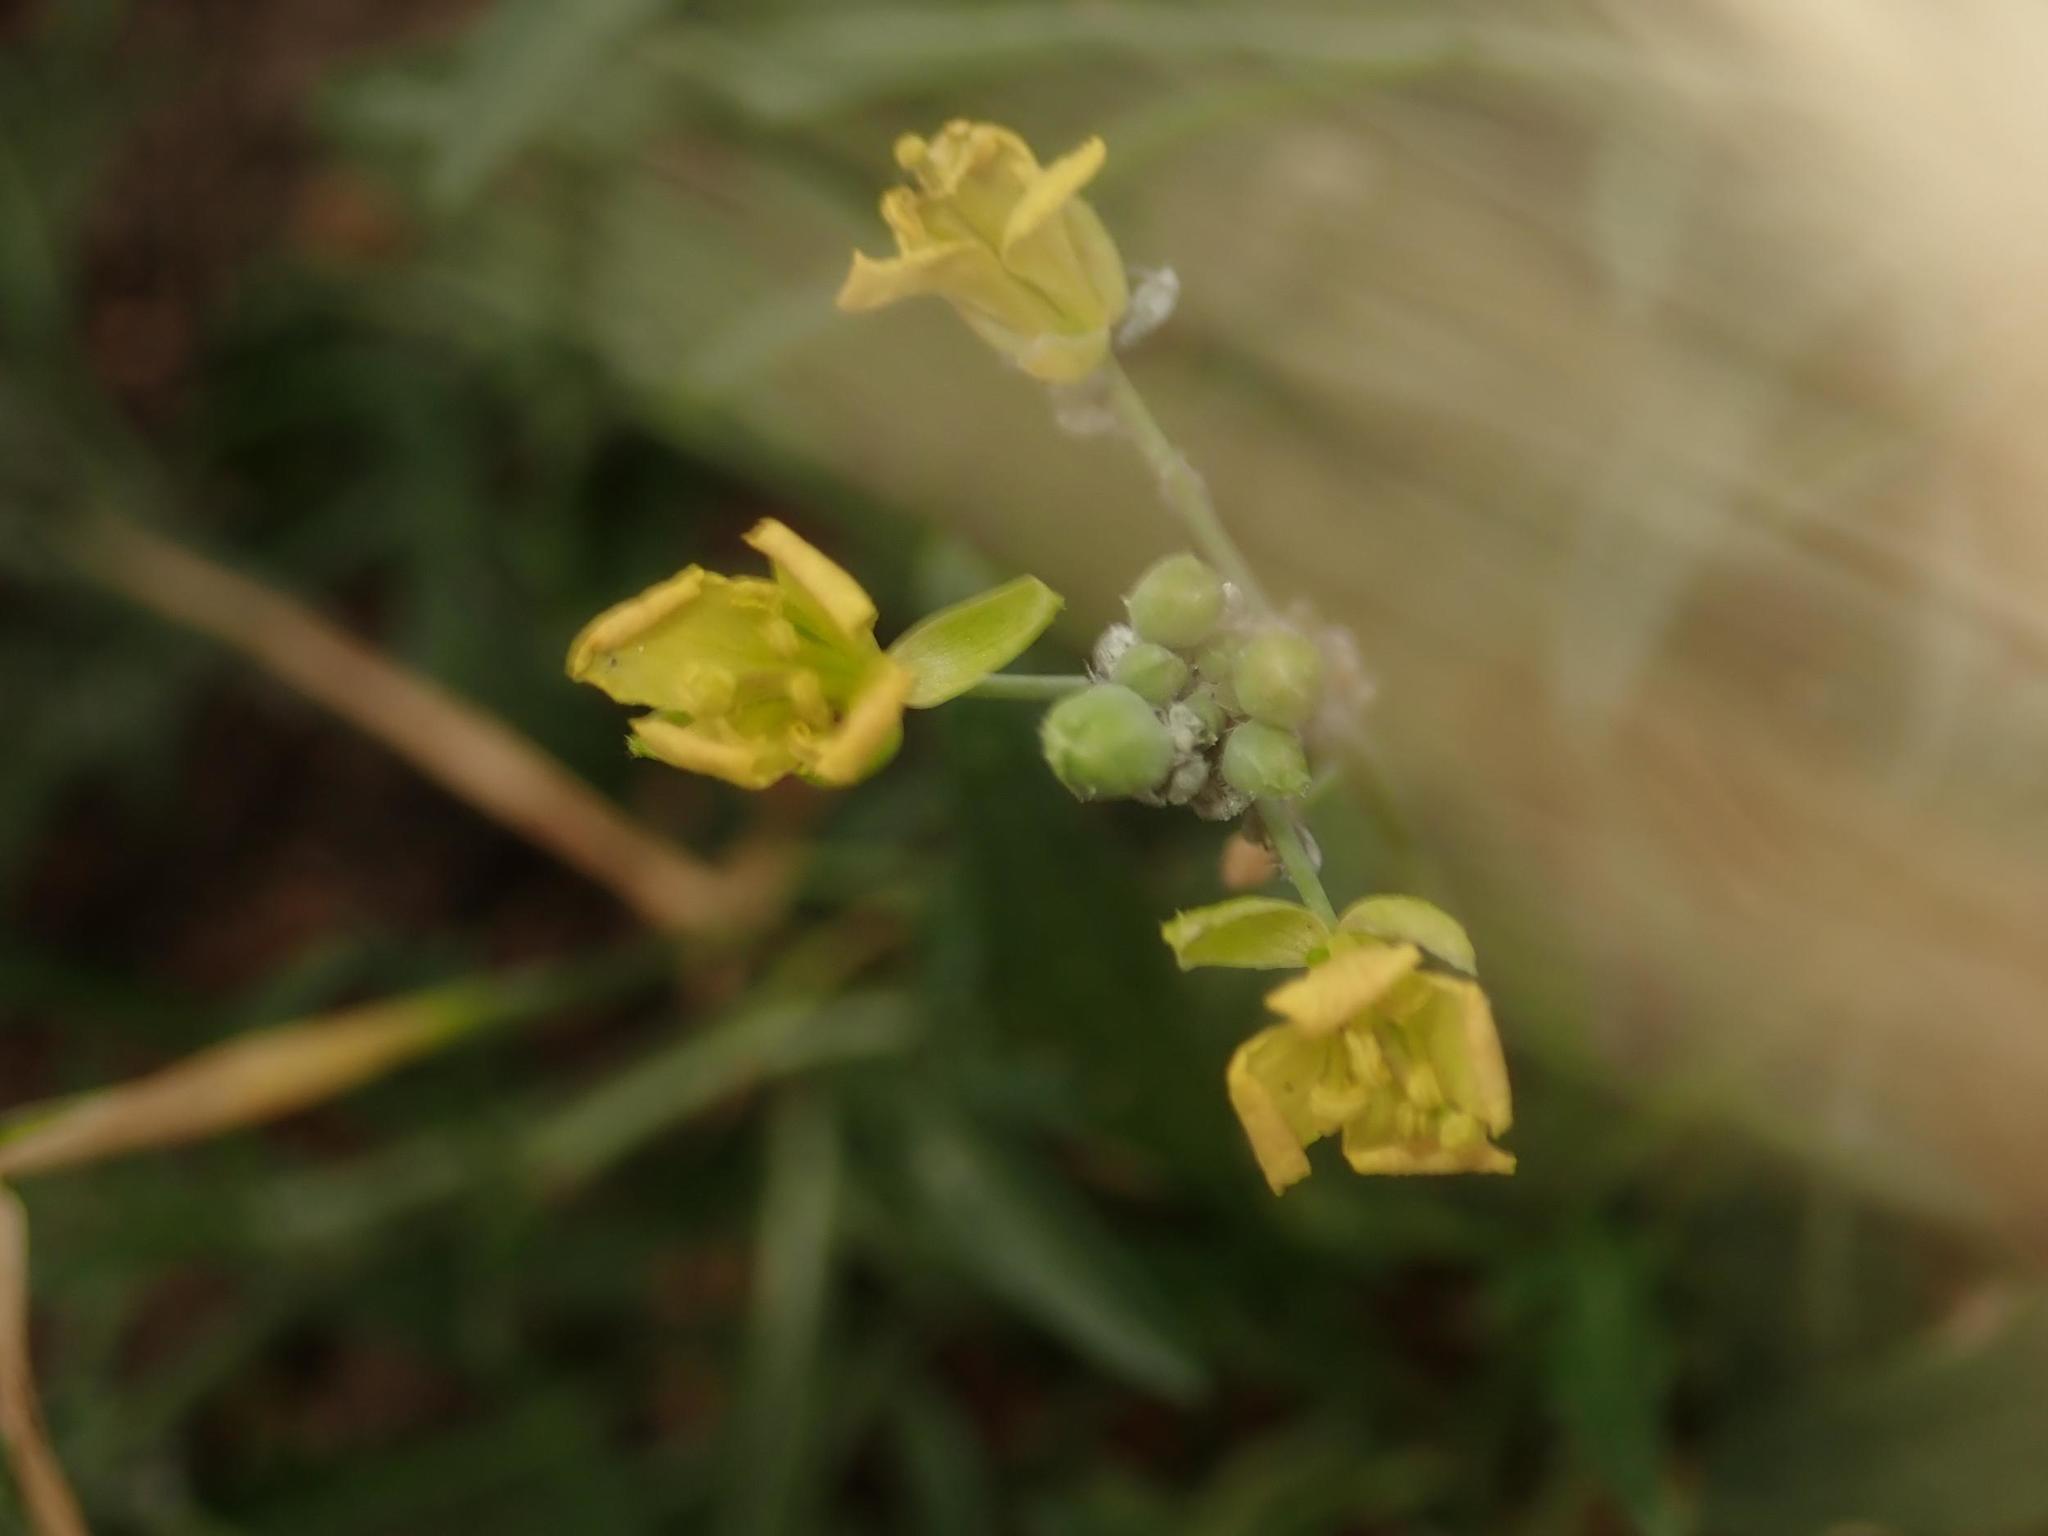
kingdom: Plantae
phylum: Tracheophyta
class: Magnoliopsida
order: Brassicales
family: Brassicaceae
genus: Diplotaxis
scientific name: Diplotaxis tenuifolia
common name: Perennial wall-rocket
